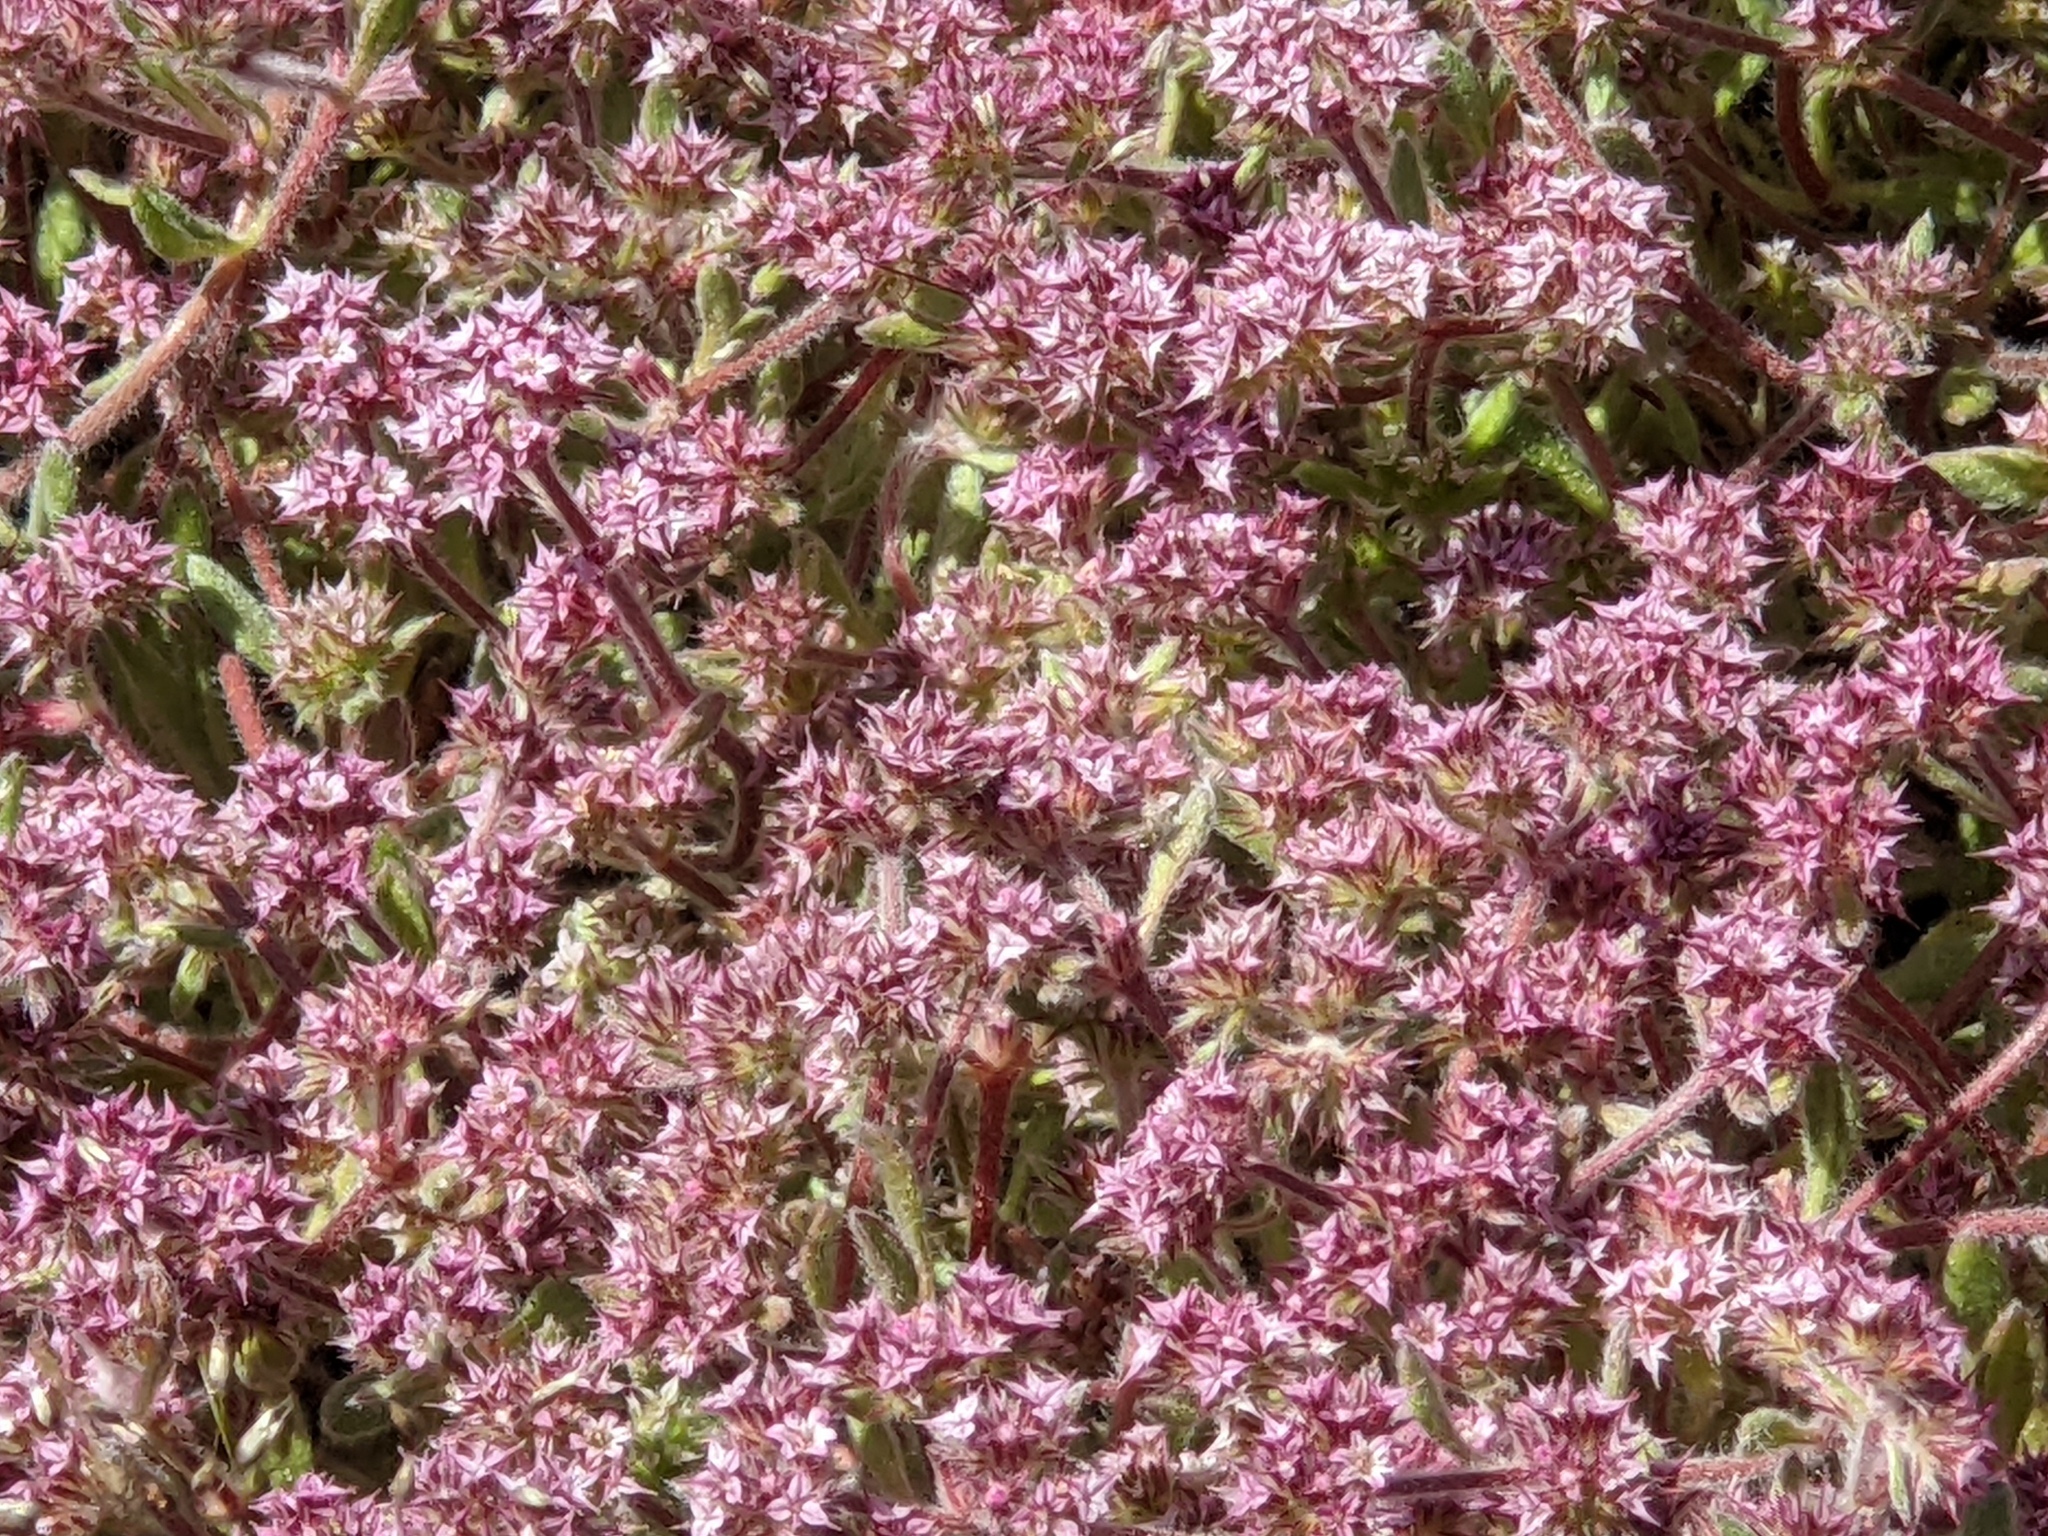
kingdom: Plantae
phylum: Tracheophyta
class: Magnoliopsida
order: Caryophyllales
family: Polygonaceae
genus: Chorizanthe
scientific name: Chorizanthe pungens
